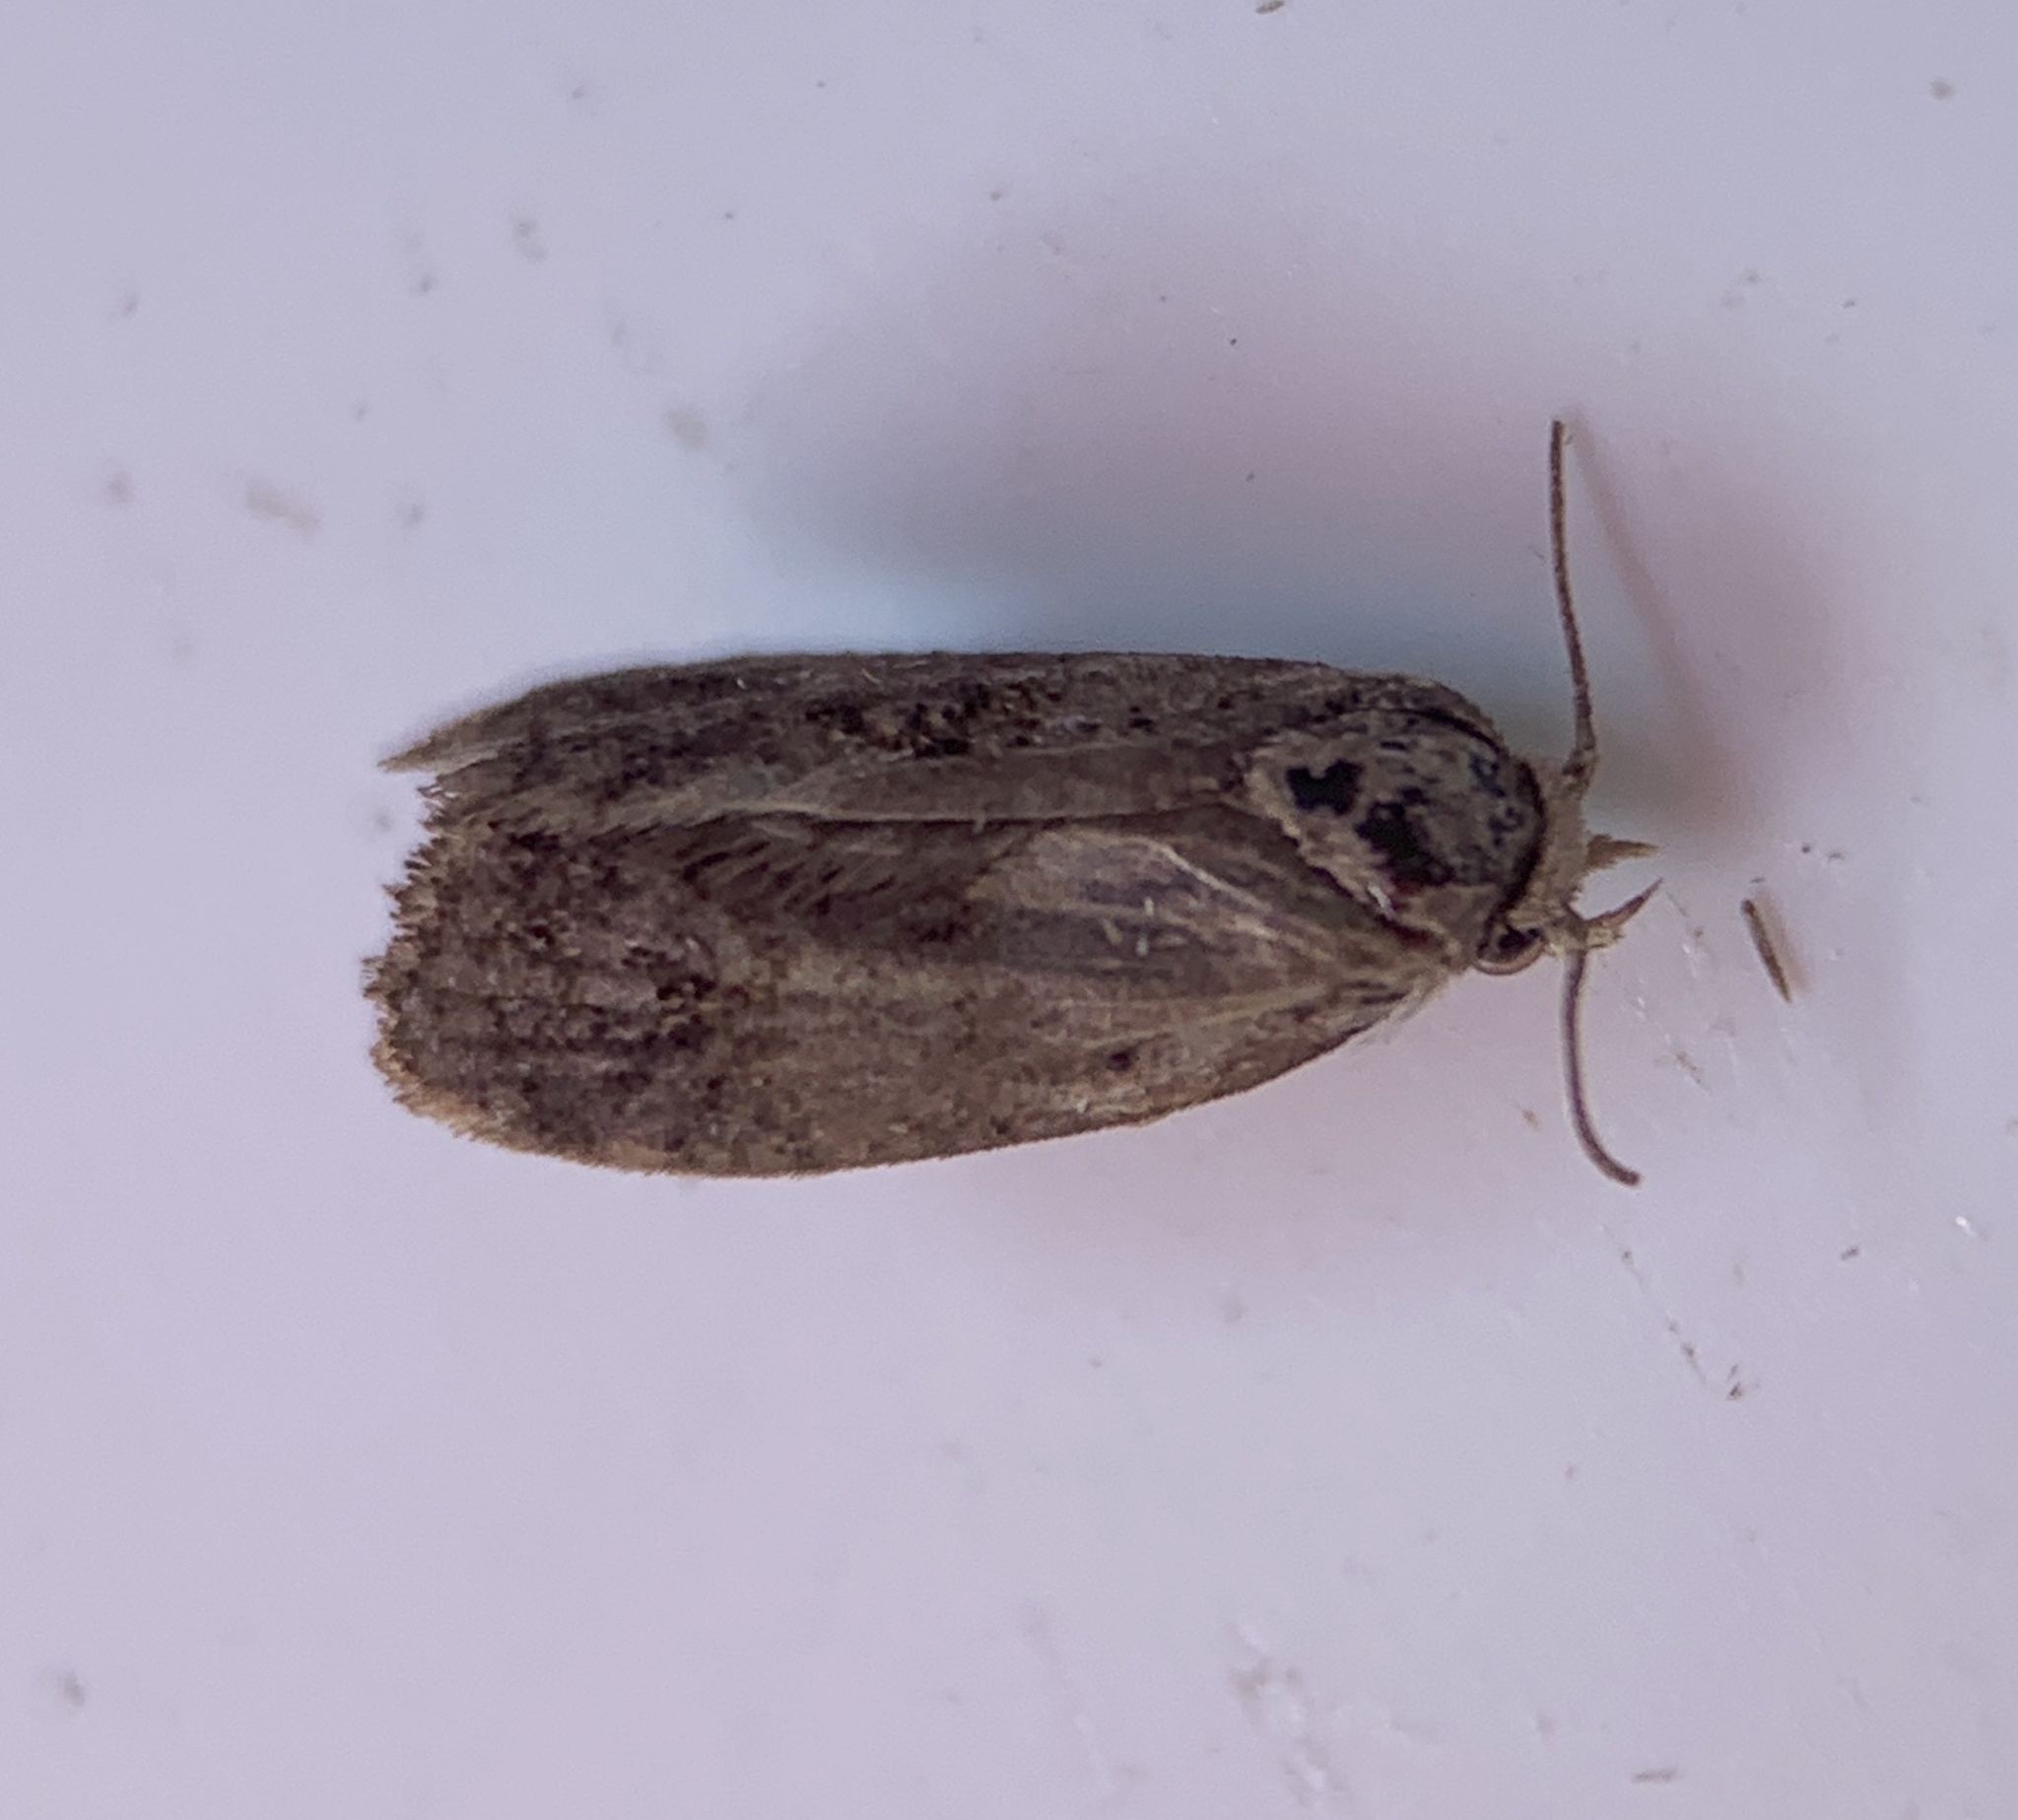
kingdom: Animalia
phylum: Arthropoda
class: Insecta
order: Lepidoptera
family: Tineidae
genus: Acrolophus
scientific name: Acrolophus panamae
